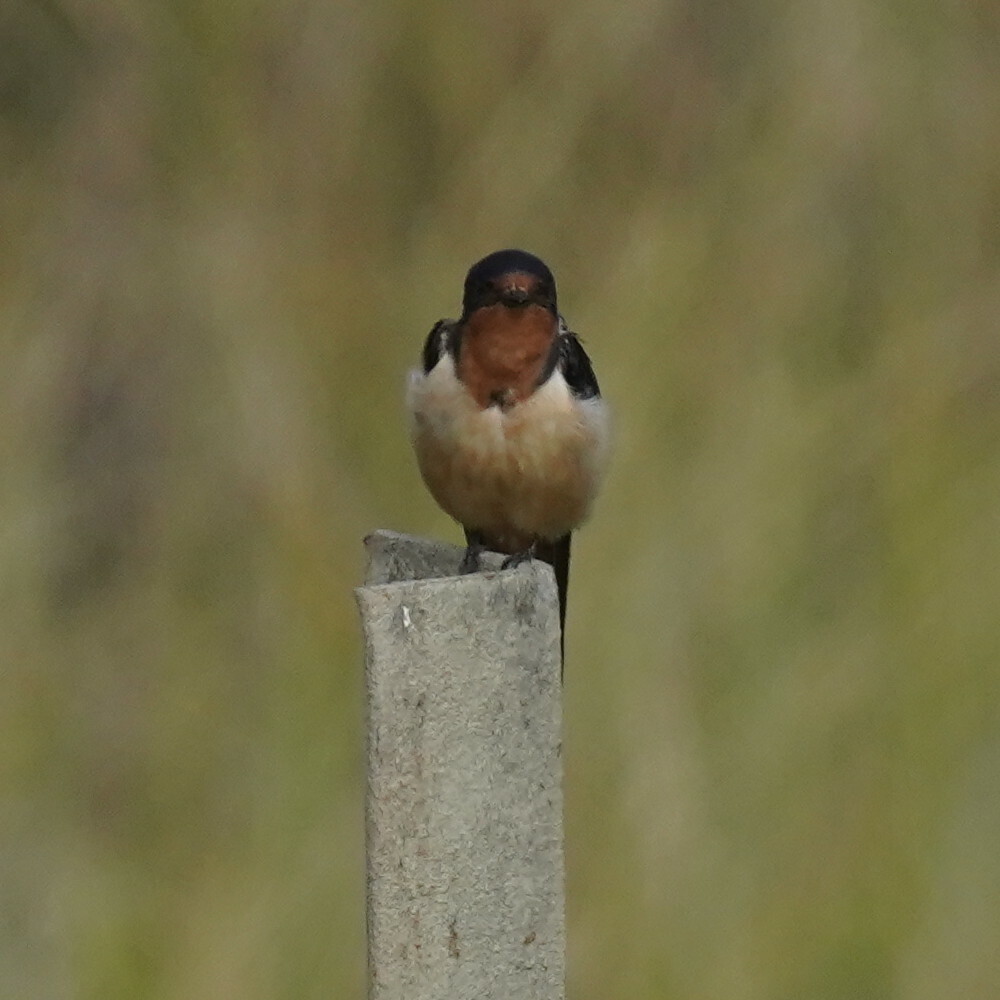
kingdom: Animalia
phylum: Chordata
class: Aves
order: Passeriformes
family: Hirundinidae
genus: Hirundo
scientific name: Hirundo rustica
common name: Barn swallow
